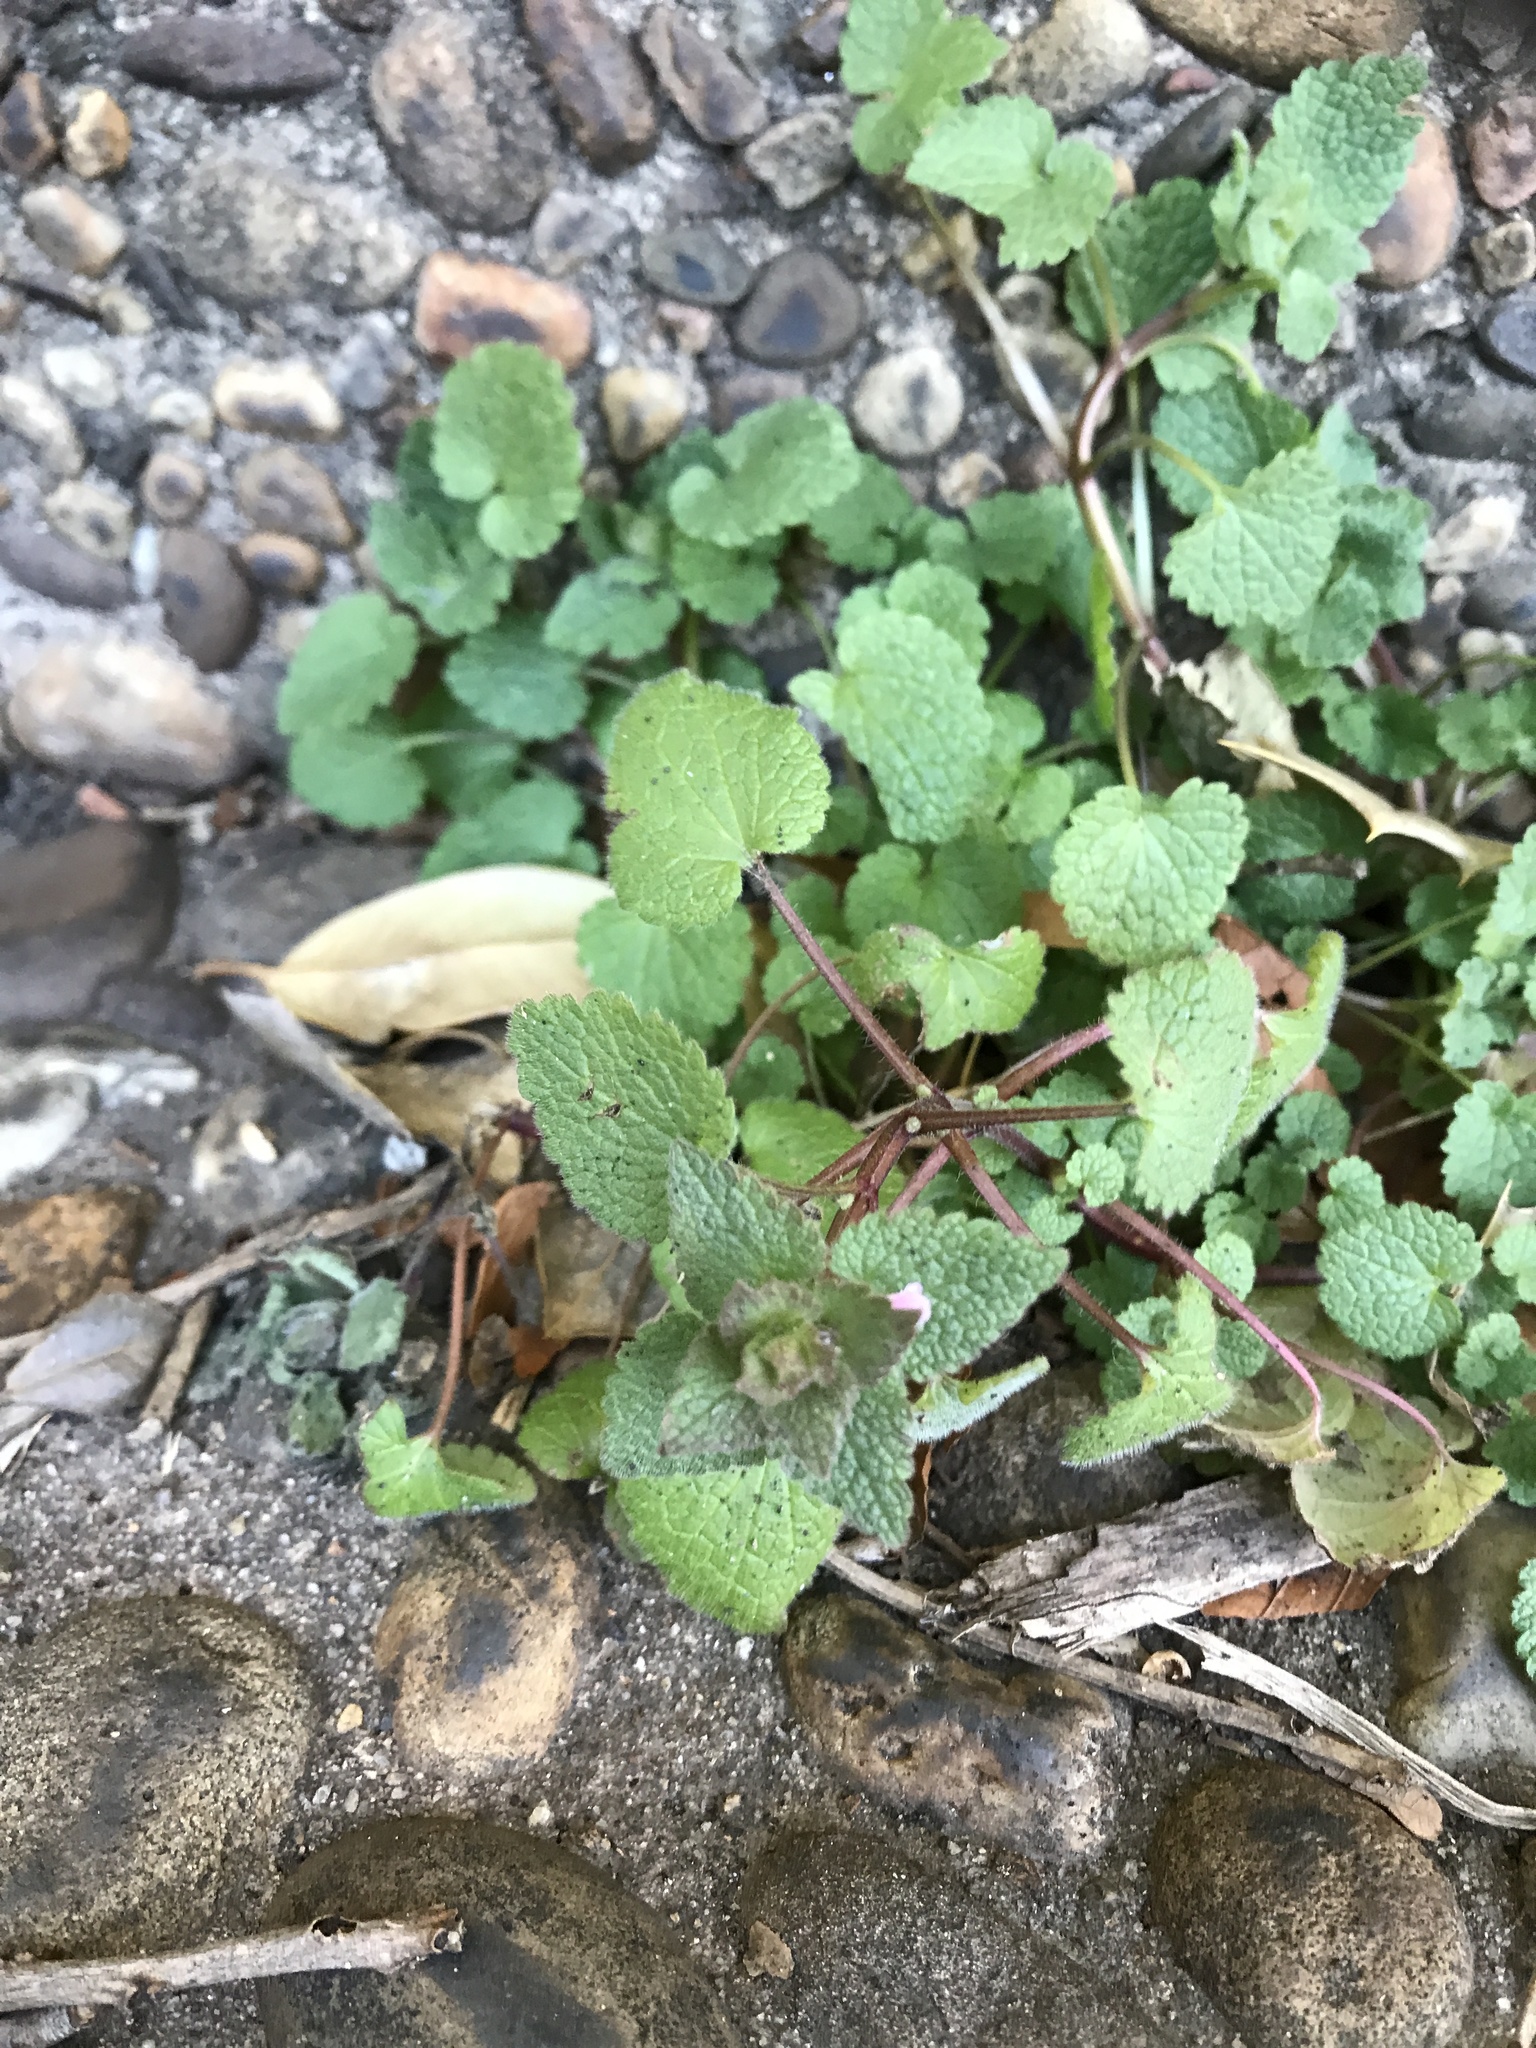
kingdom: Plantae
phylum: Tracheophyta
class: Magnoliopsida
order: Lamiales
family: Lamiaceae
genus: Lamium
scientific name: Lamium purpureum
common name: Red dead-nettle
